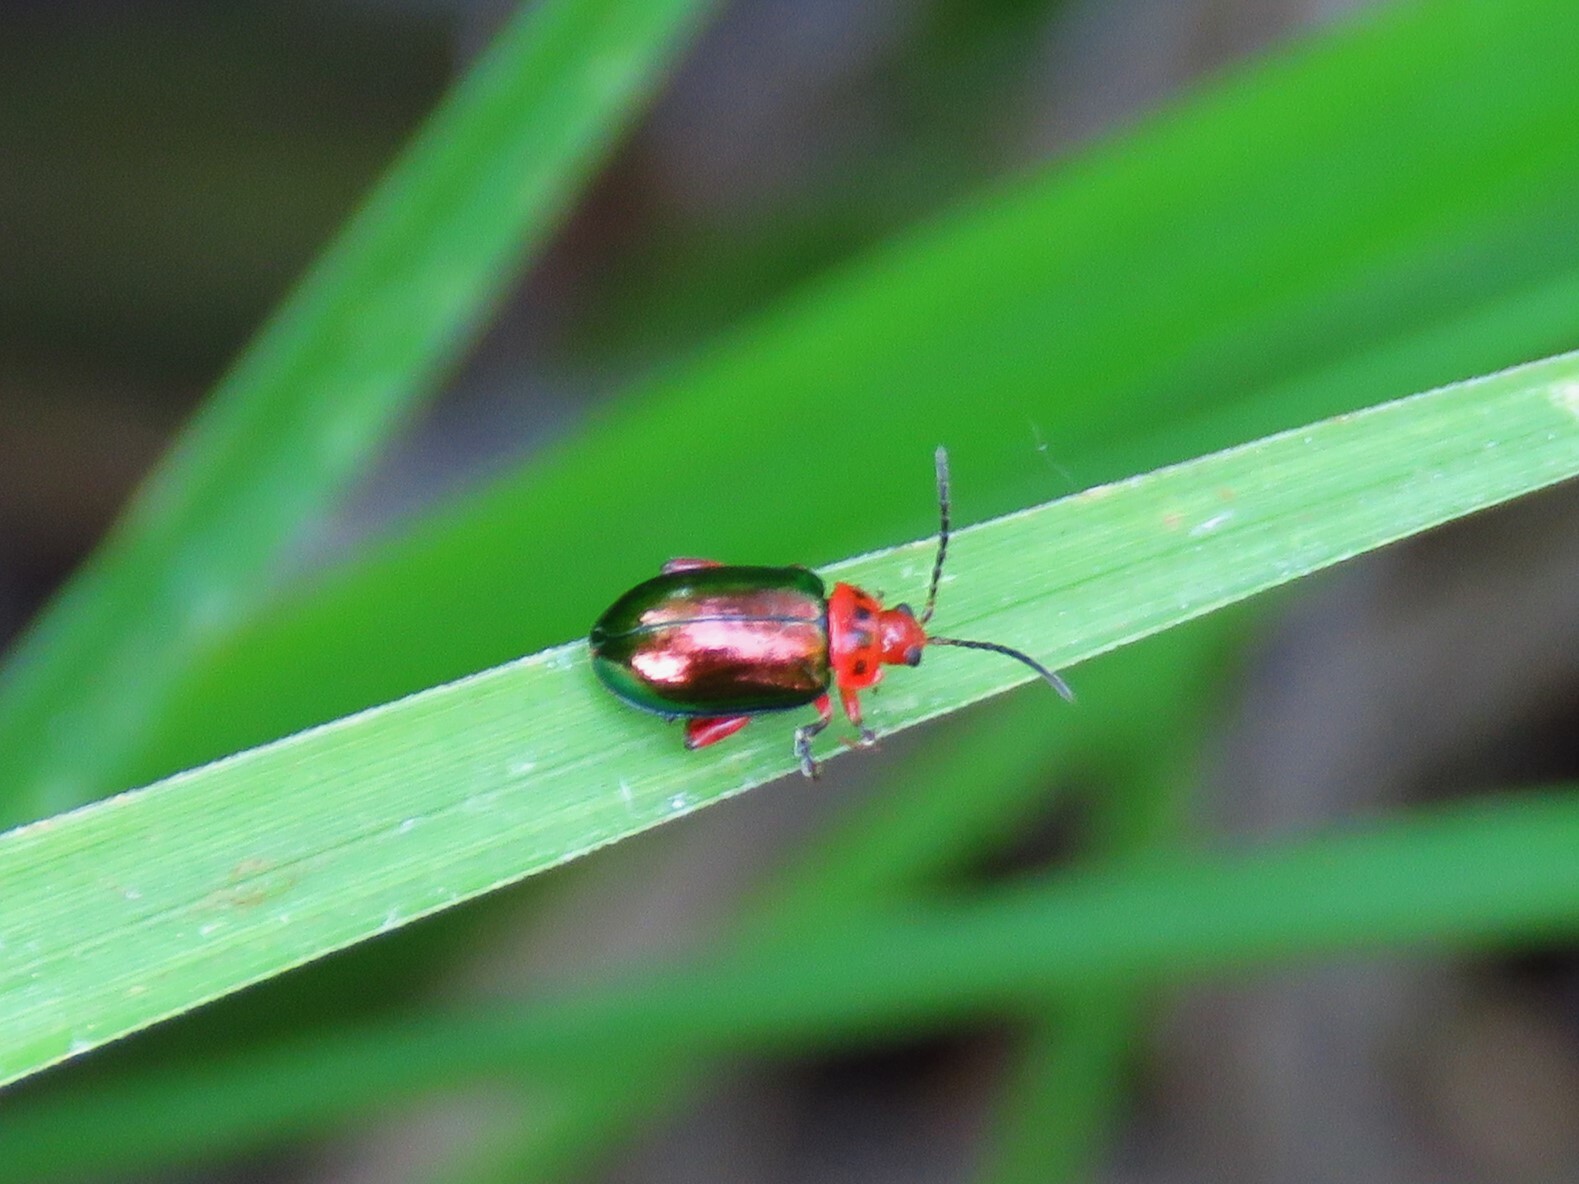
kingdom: Animalia
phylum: Arthropoda
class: Insecta
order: Coleoptera
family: Chrysomelidae
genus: Kuschelina
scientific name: Kuschelina gibbitarsa
